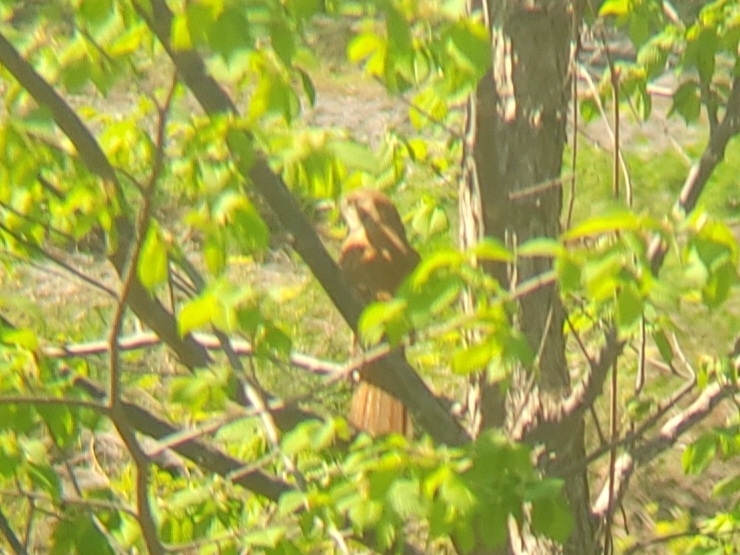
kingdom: Animalia
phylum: Chordata
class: Aves
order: Passeriformes
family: Mimidae
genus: Toxostoma
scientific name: Toxostoma rufum
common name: Brown thrasher
